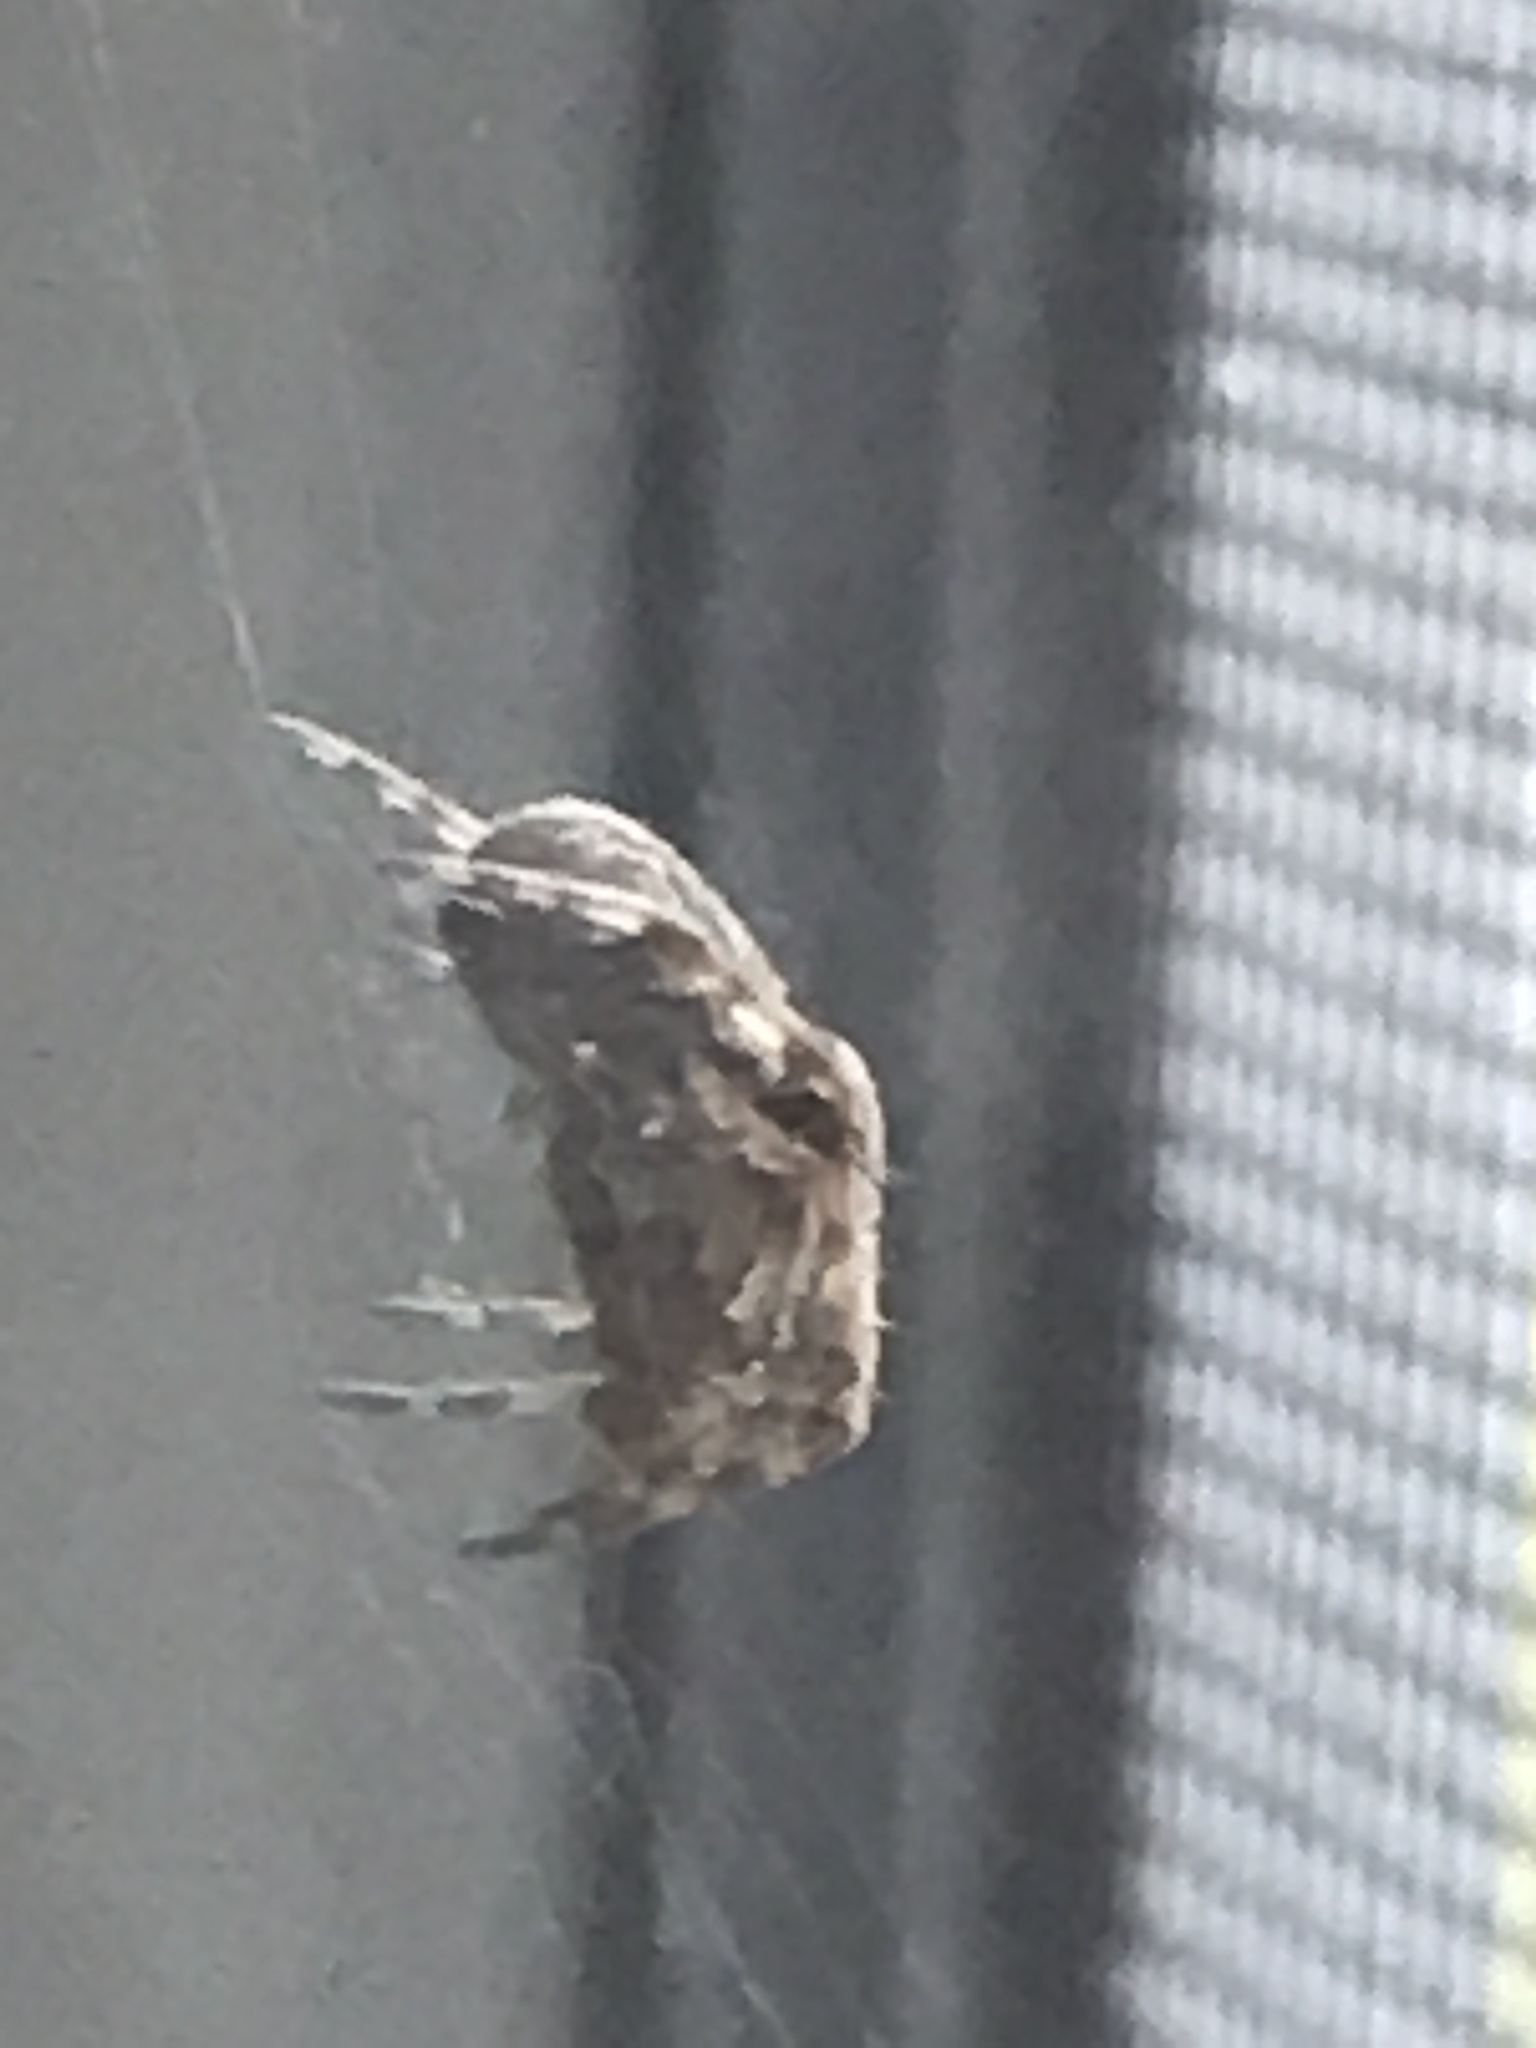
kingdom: Animalia
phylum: Arthropoda
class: Arachnida
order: Araneae
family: Araneidae
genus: Larinioides
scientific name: Larinioides sclopetarius
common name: Bridge orbweaver
